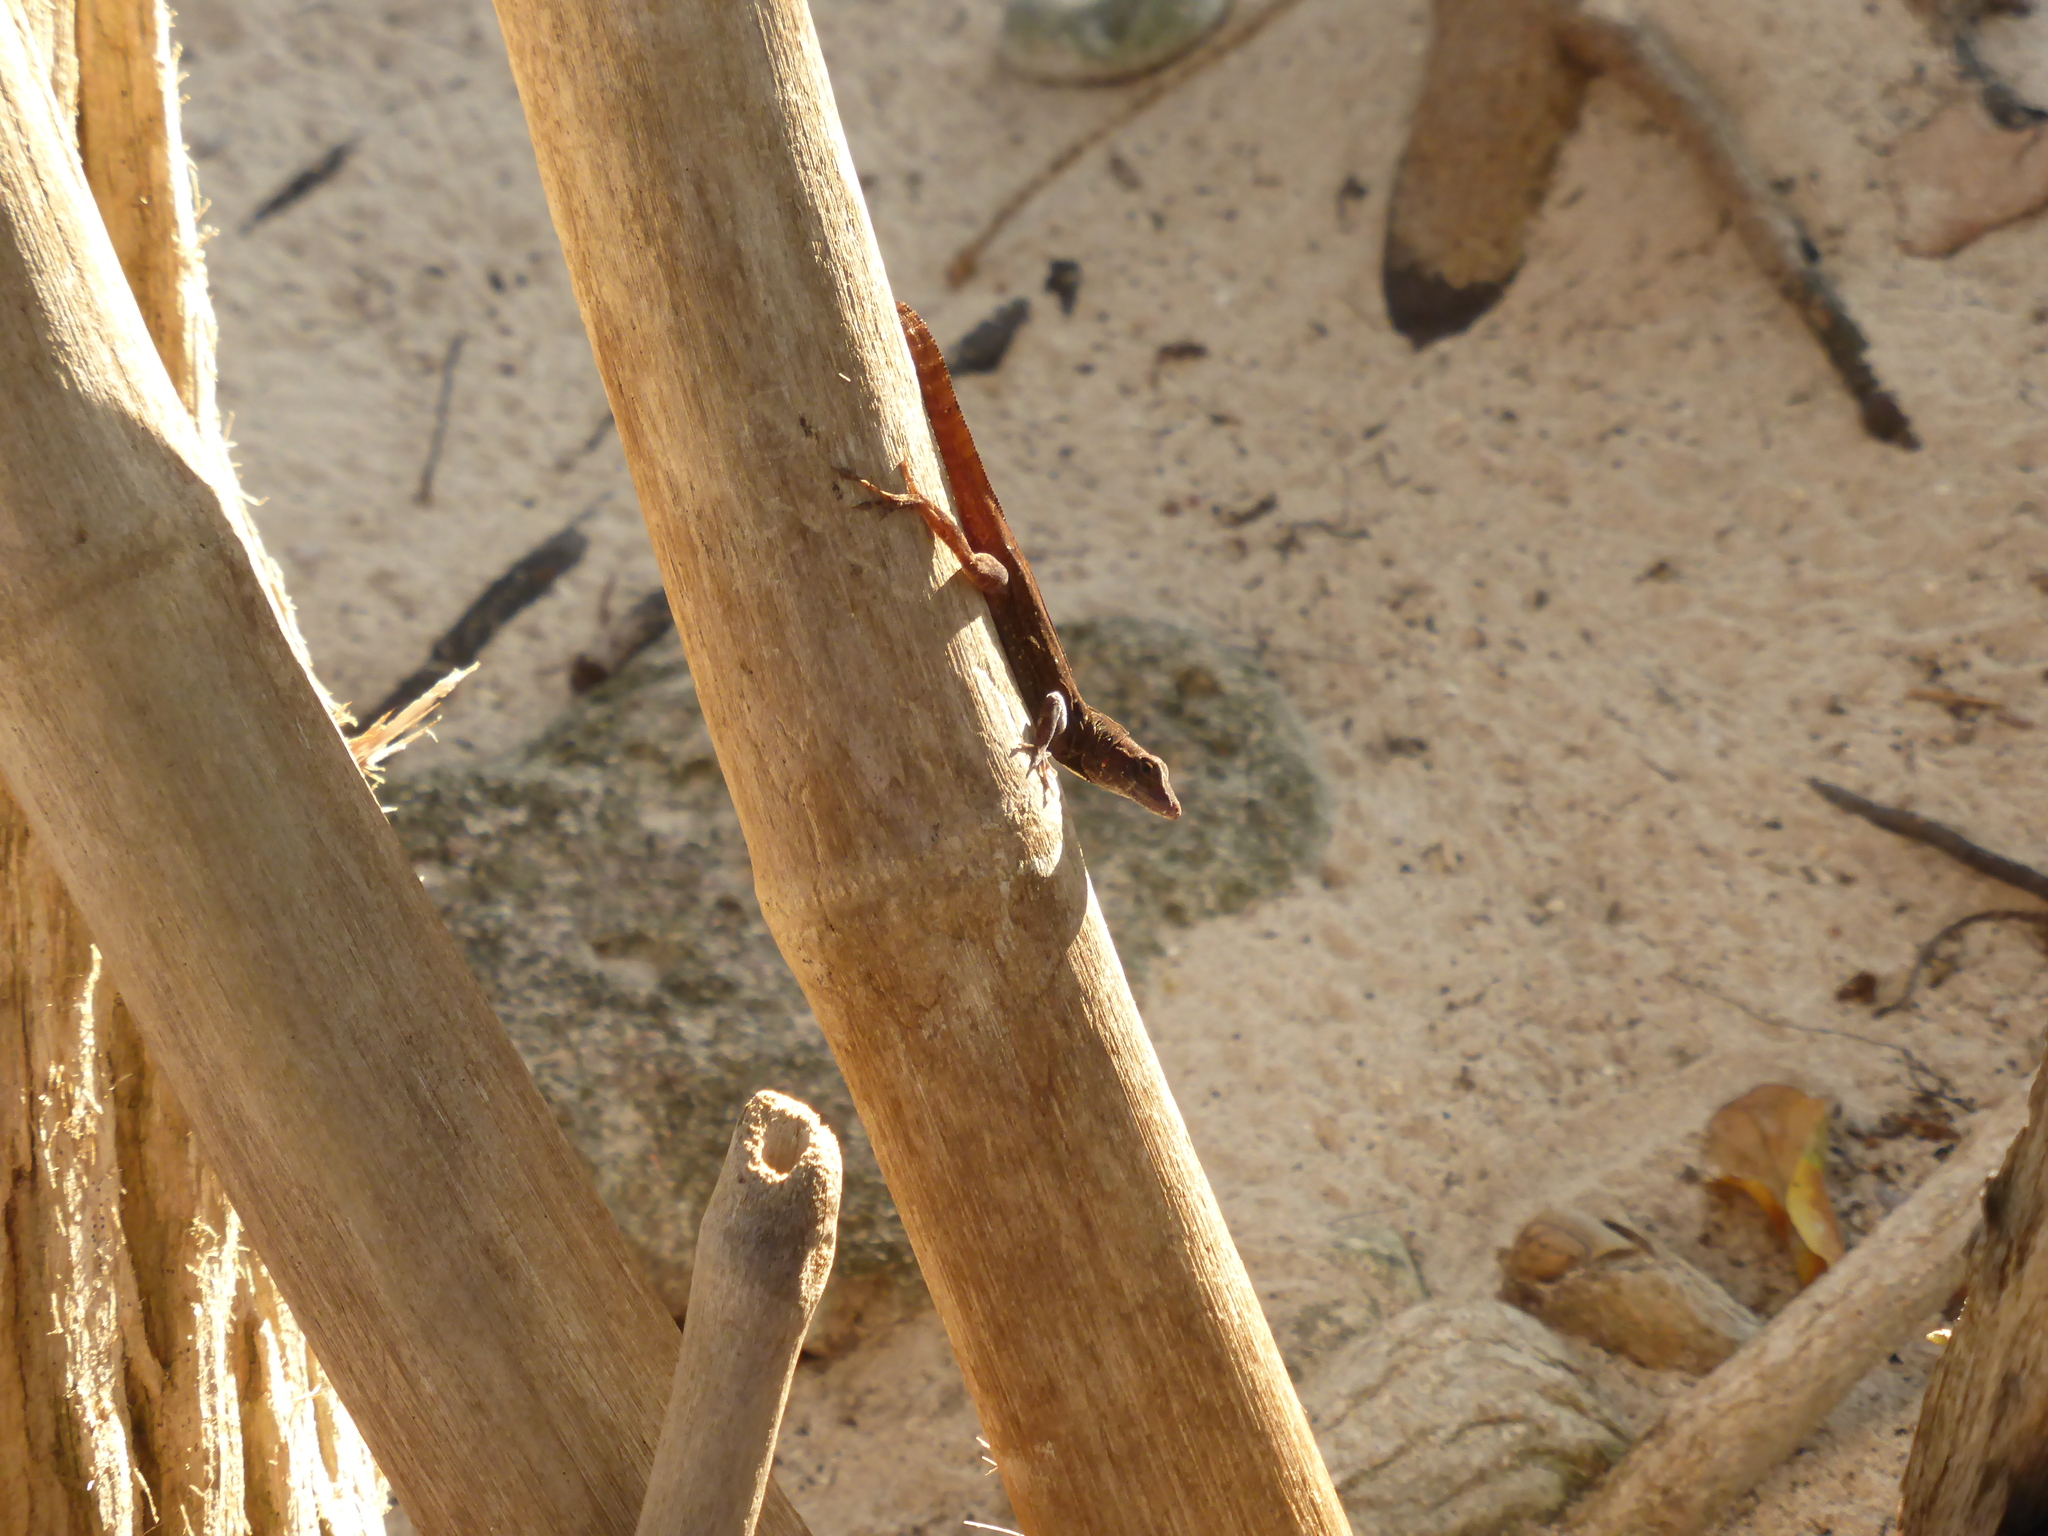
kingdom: Animalia
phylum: Chordata
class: Squamata
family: Dactyloidae
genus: Anolis
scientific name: Anolis luteosignifer
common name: Cayman brac anole
